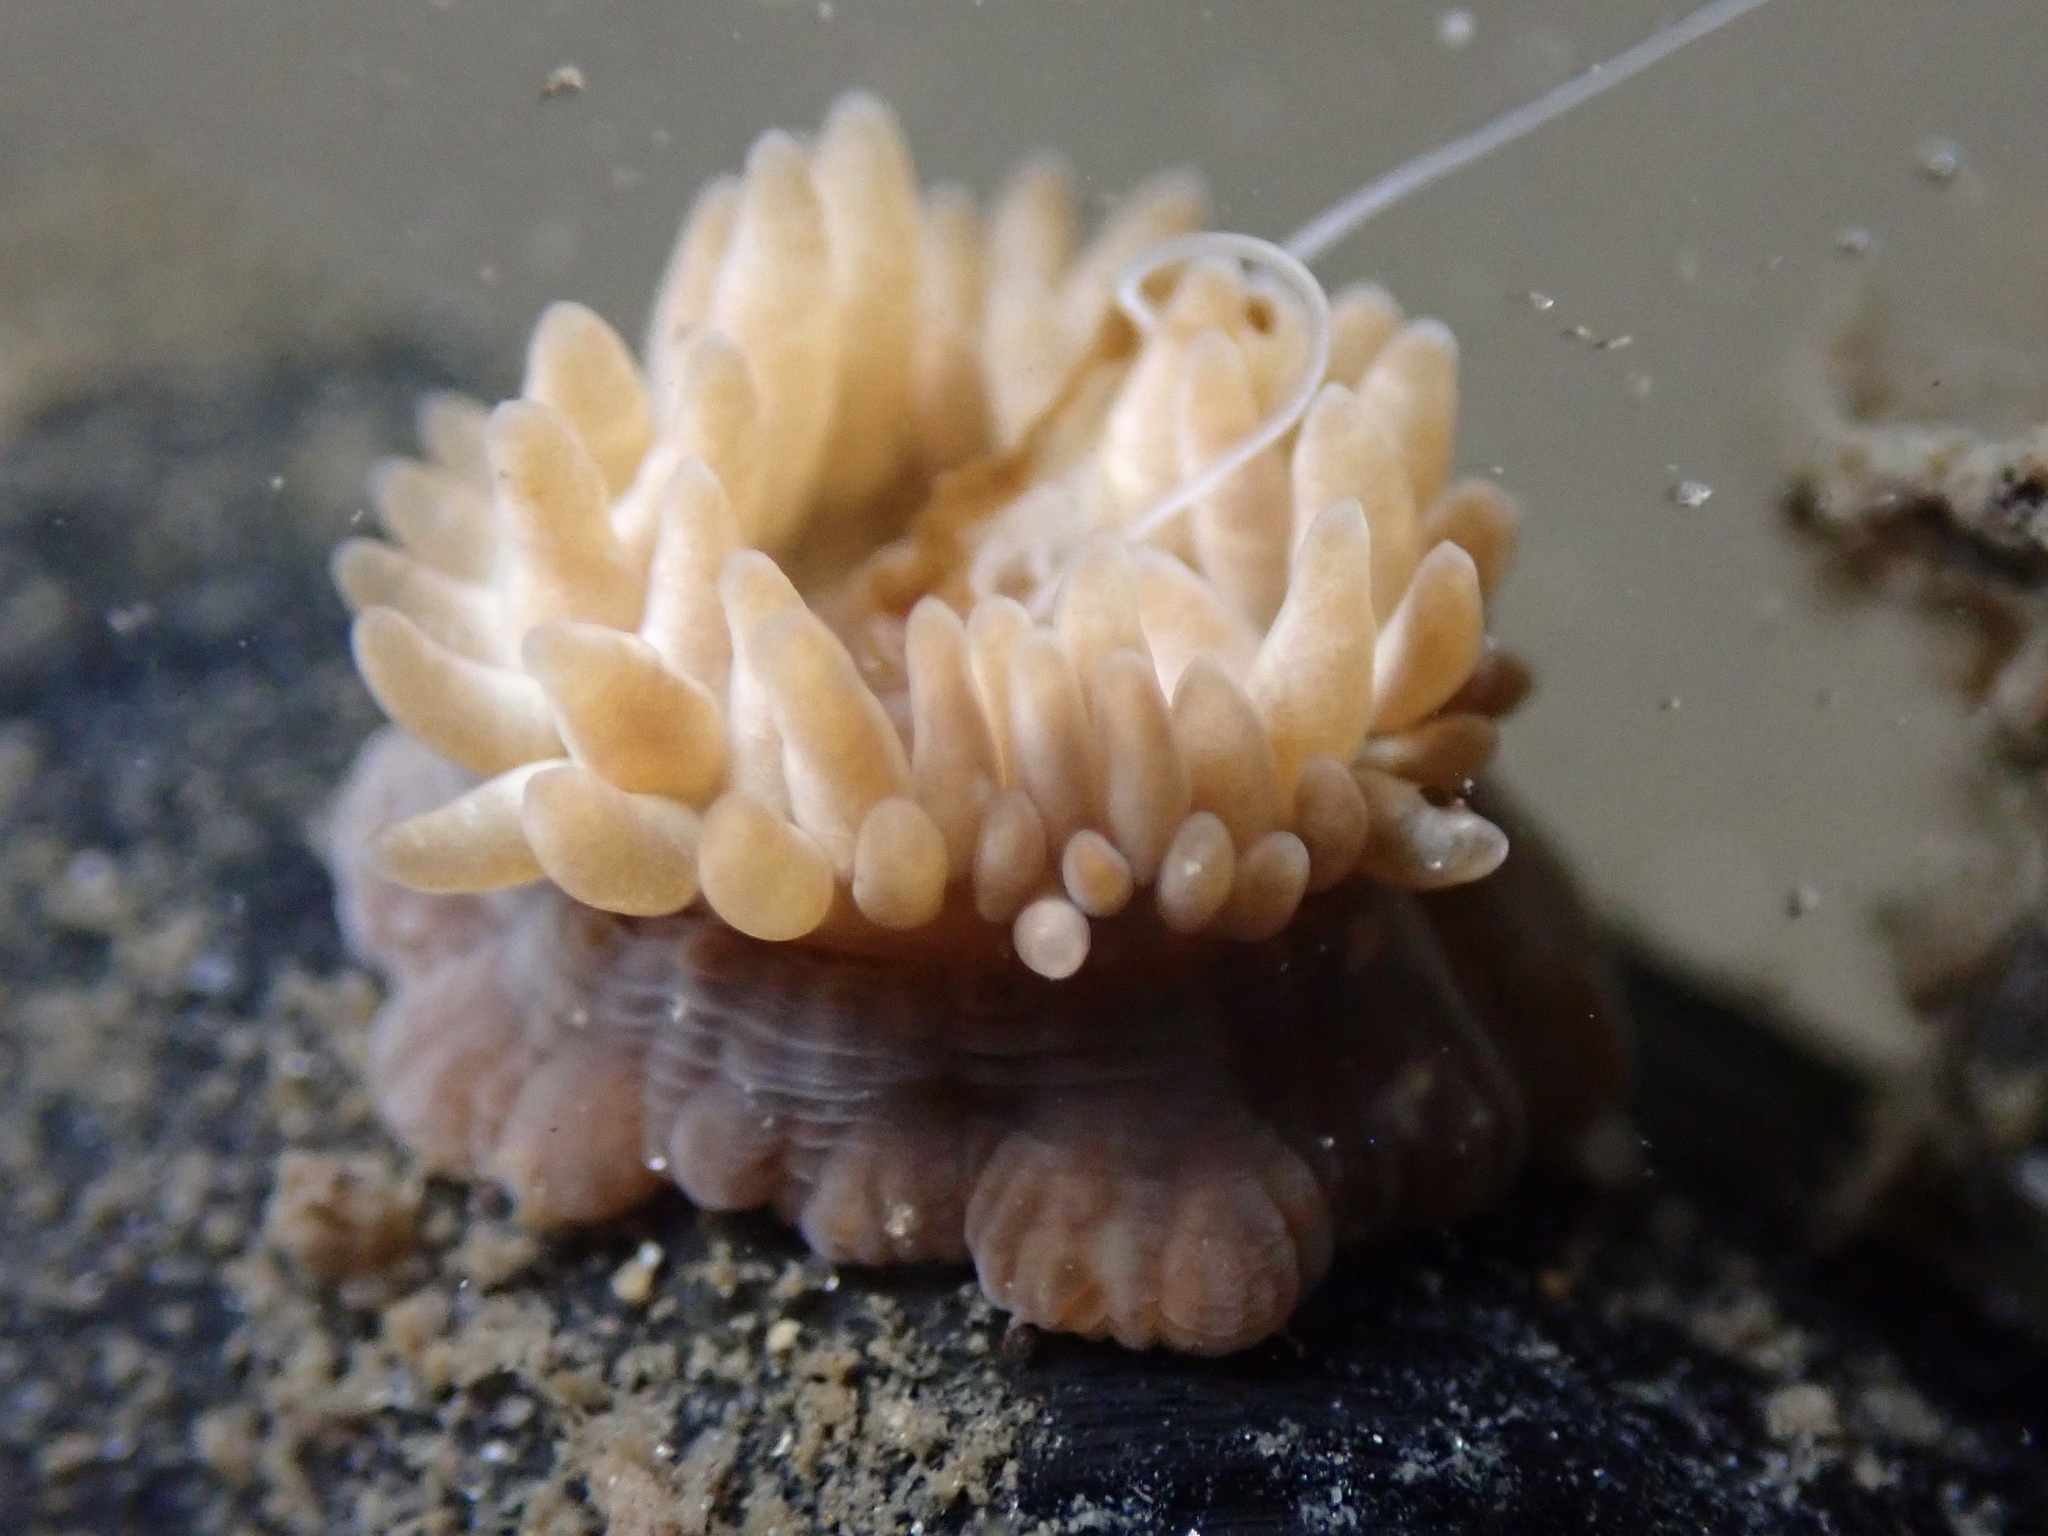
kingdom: Animalia
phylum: Cnidaria
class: Anthozoa
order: Actiniaria
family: Aiptasiidae
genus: Exaiptasia
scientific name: Exaiptasia diaphana
